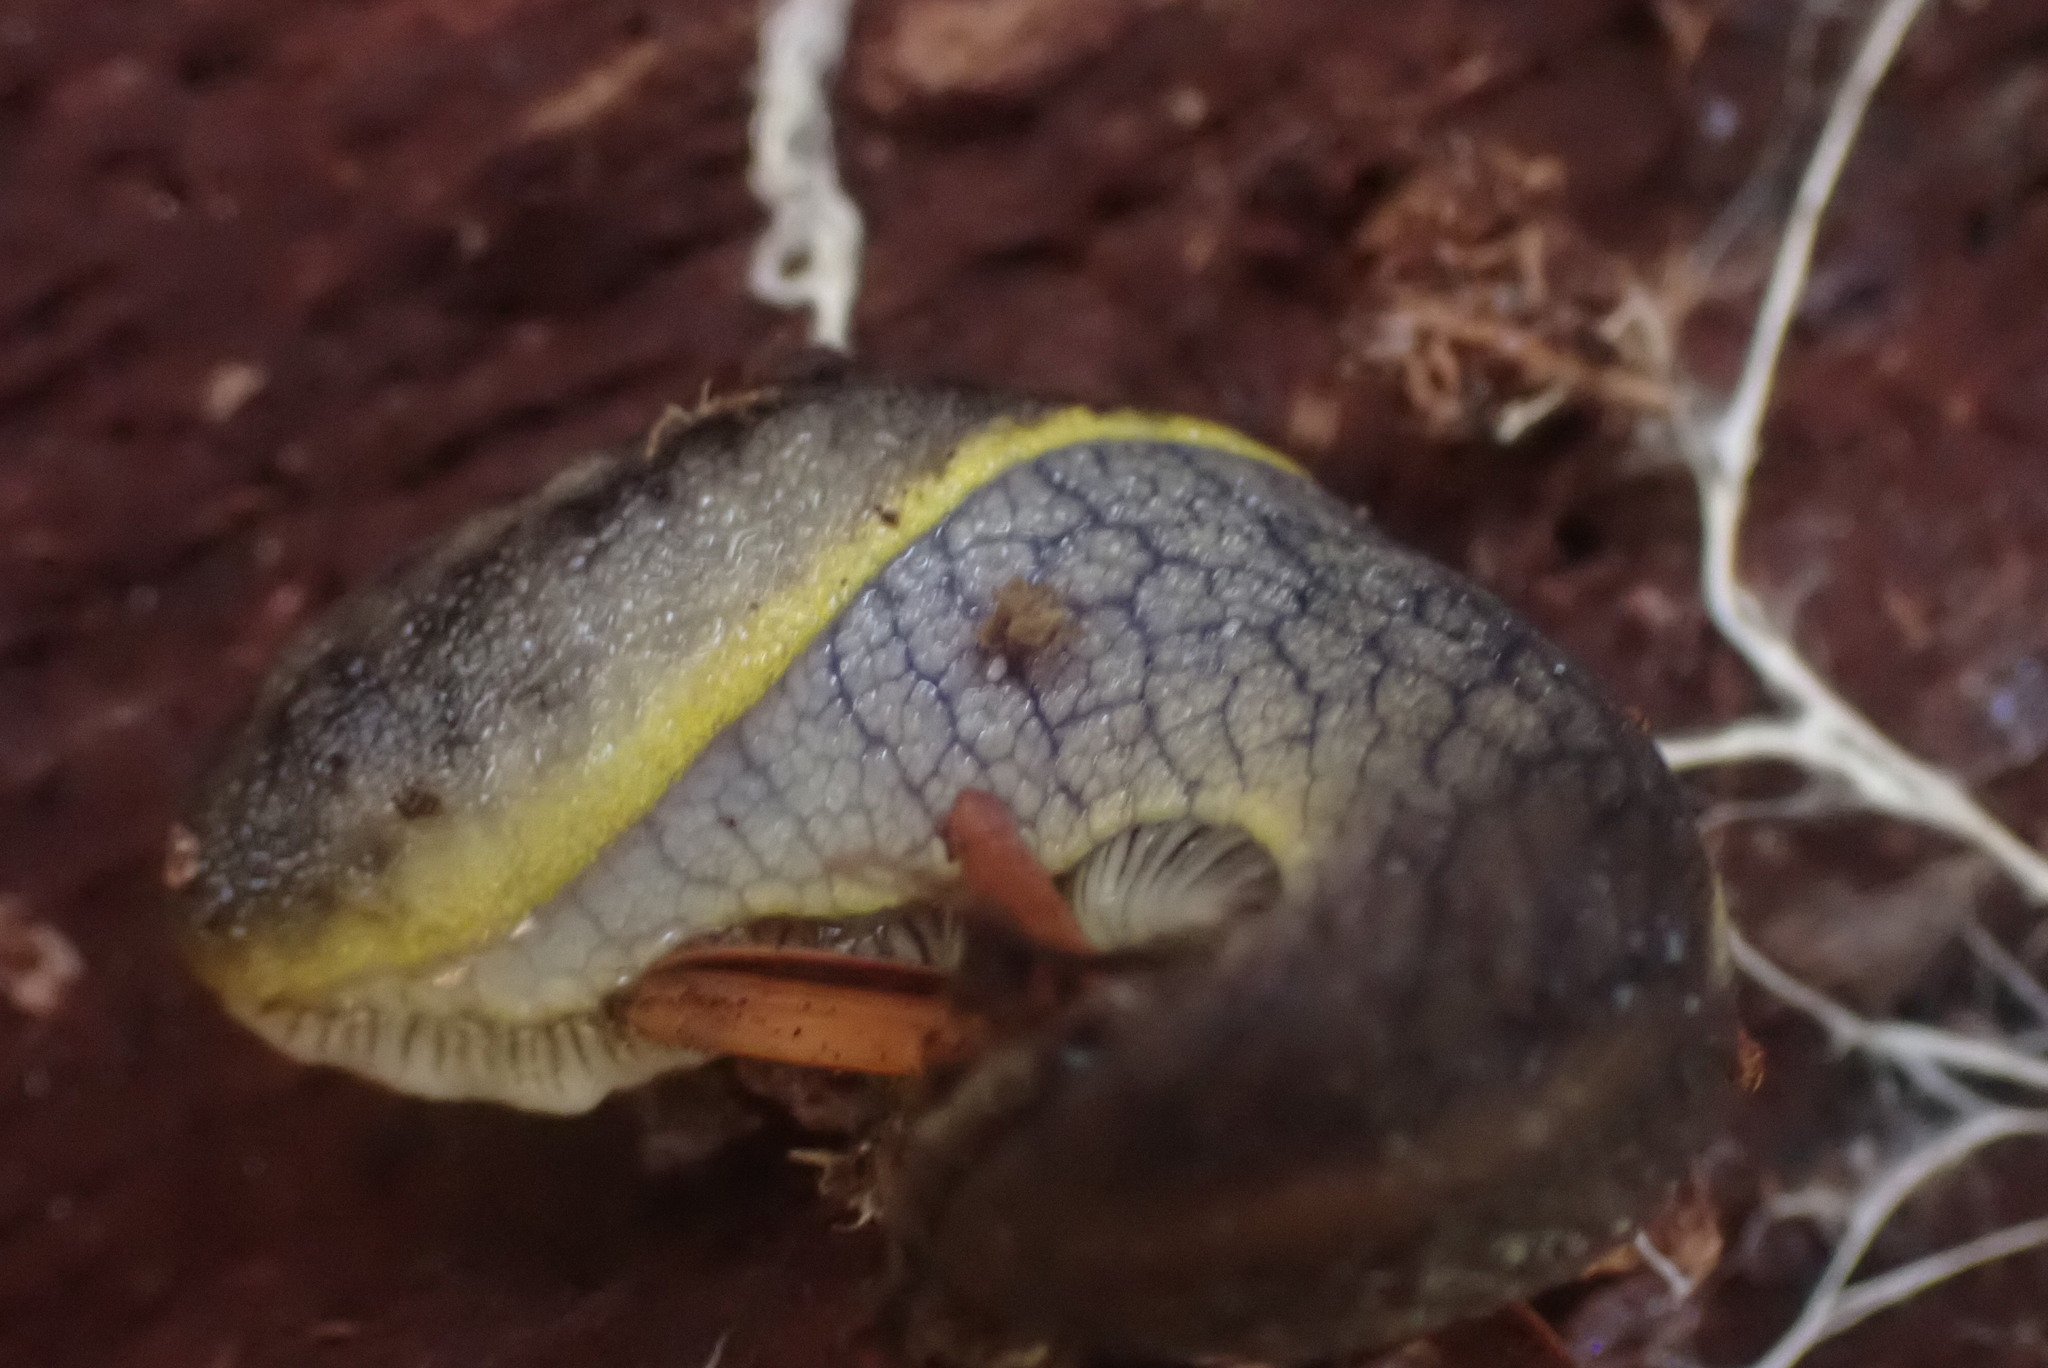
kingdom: Animalia
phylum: Mollusca
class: Gastropoda
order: Stylommatophora
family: Ariolimacidae
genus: Prophysaon
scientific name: Prophysaon foliolatum
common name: Yellow-bordered taildropper
